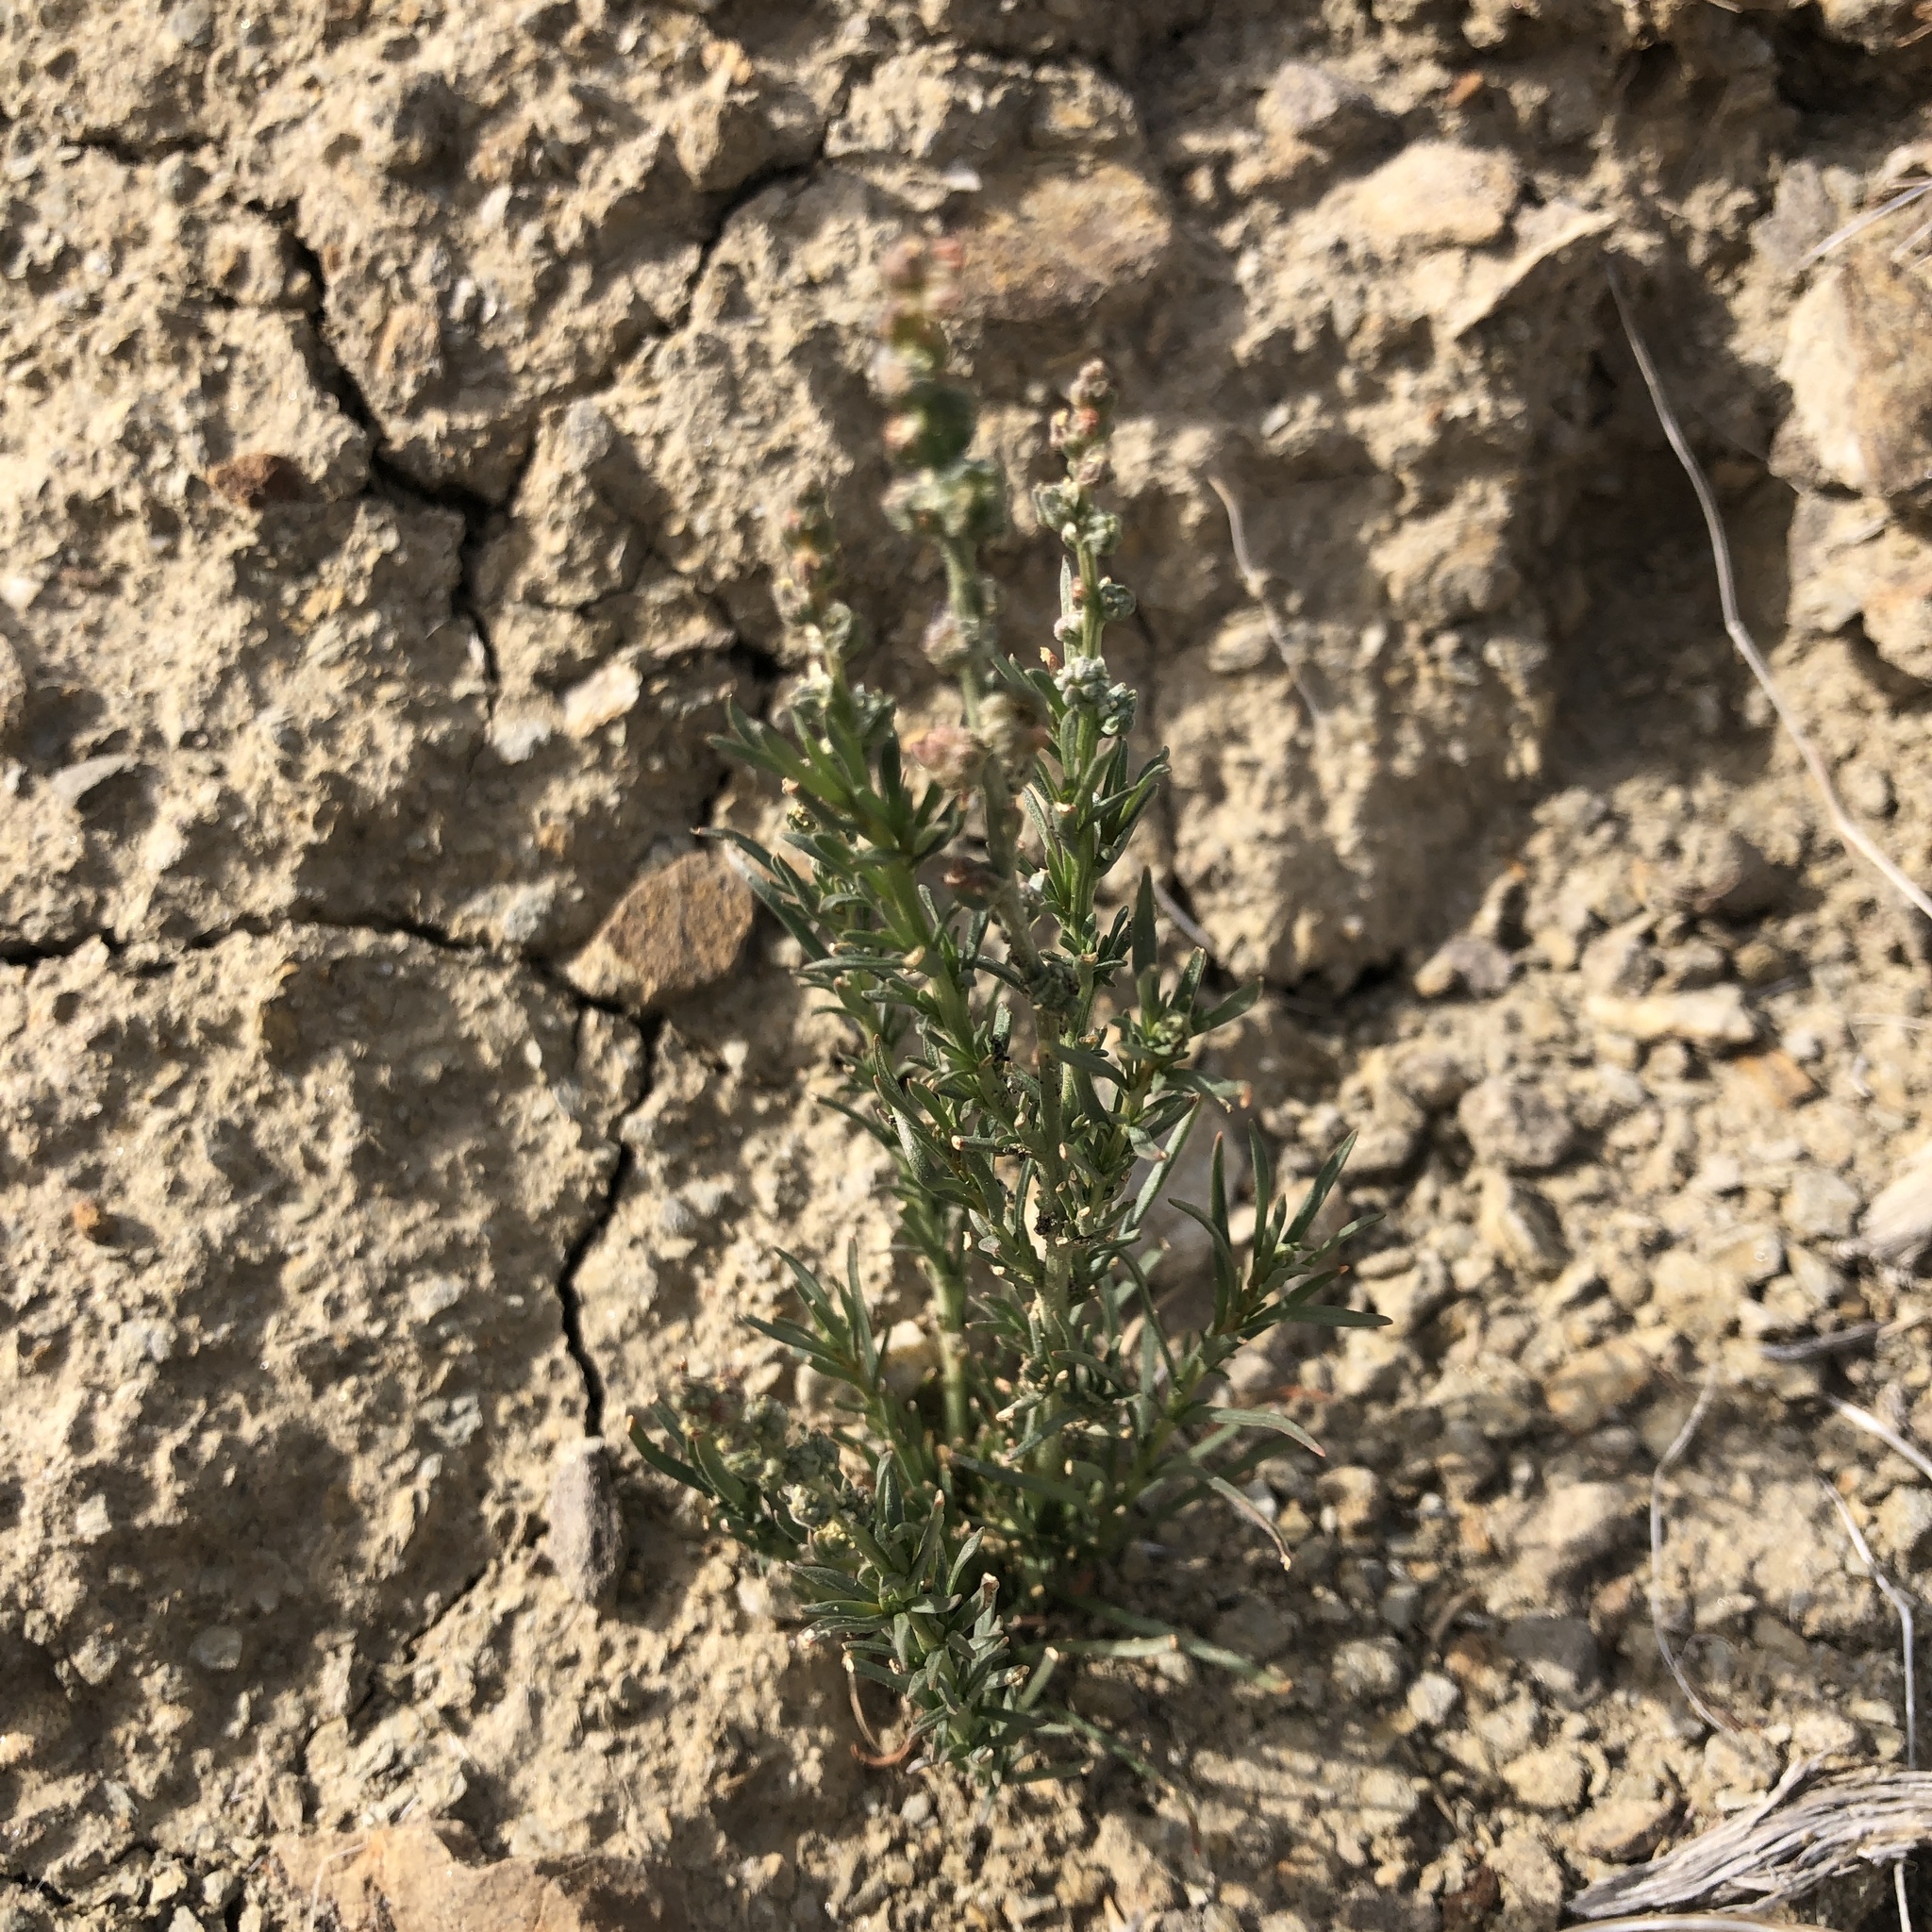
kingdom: Plantae
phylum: Tracheophyta
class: Magnoliopsida
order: Brassicales
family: Resedaceae
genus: Oligomeris
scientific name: Oligomeris linifolia
